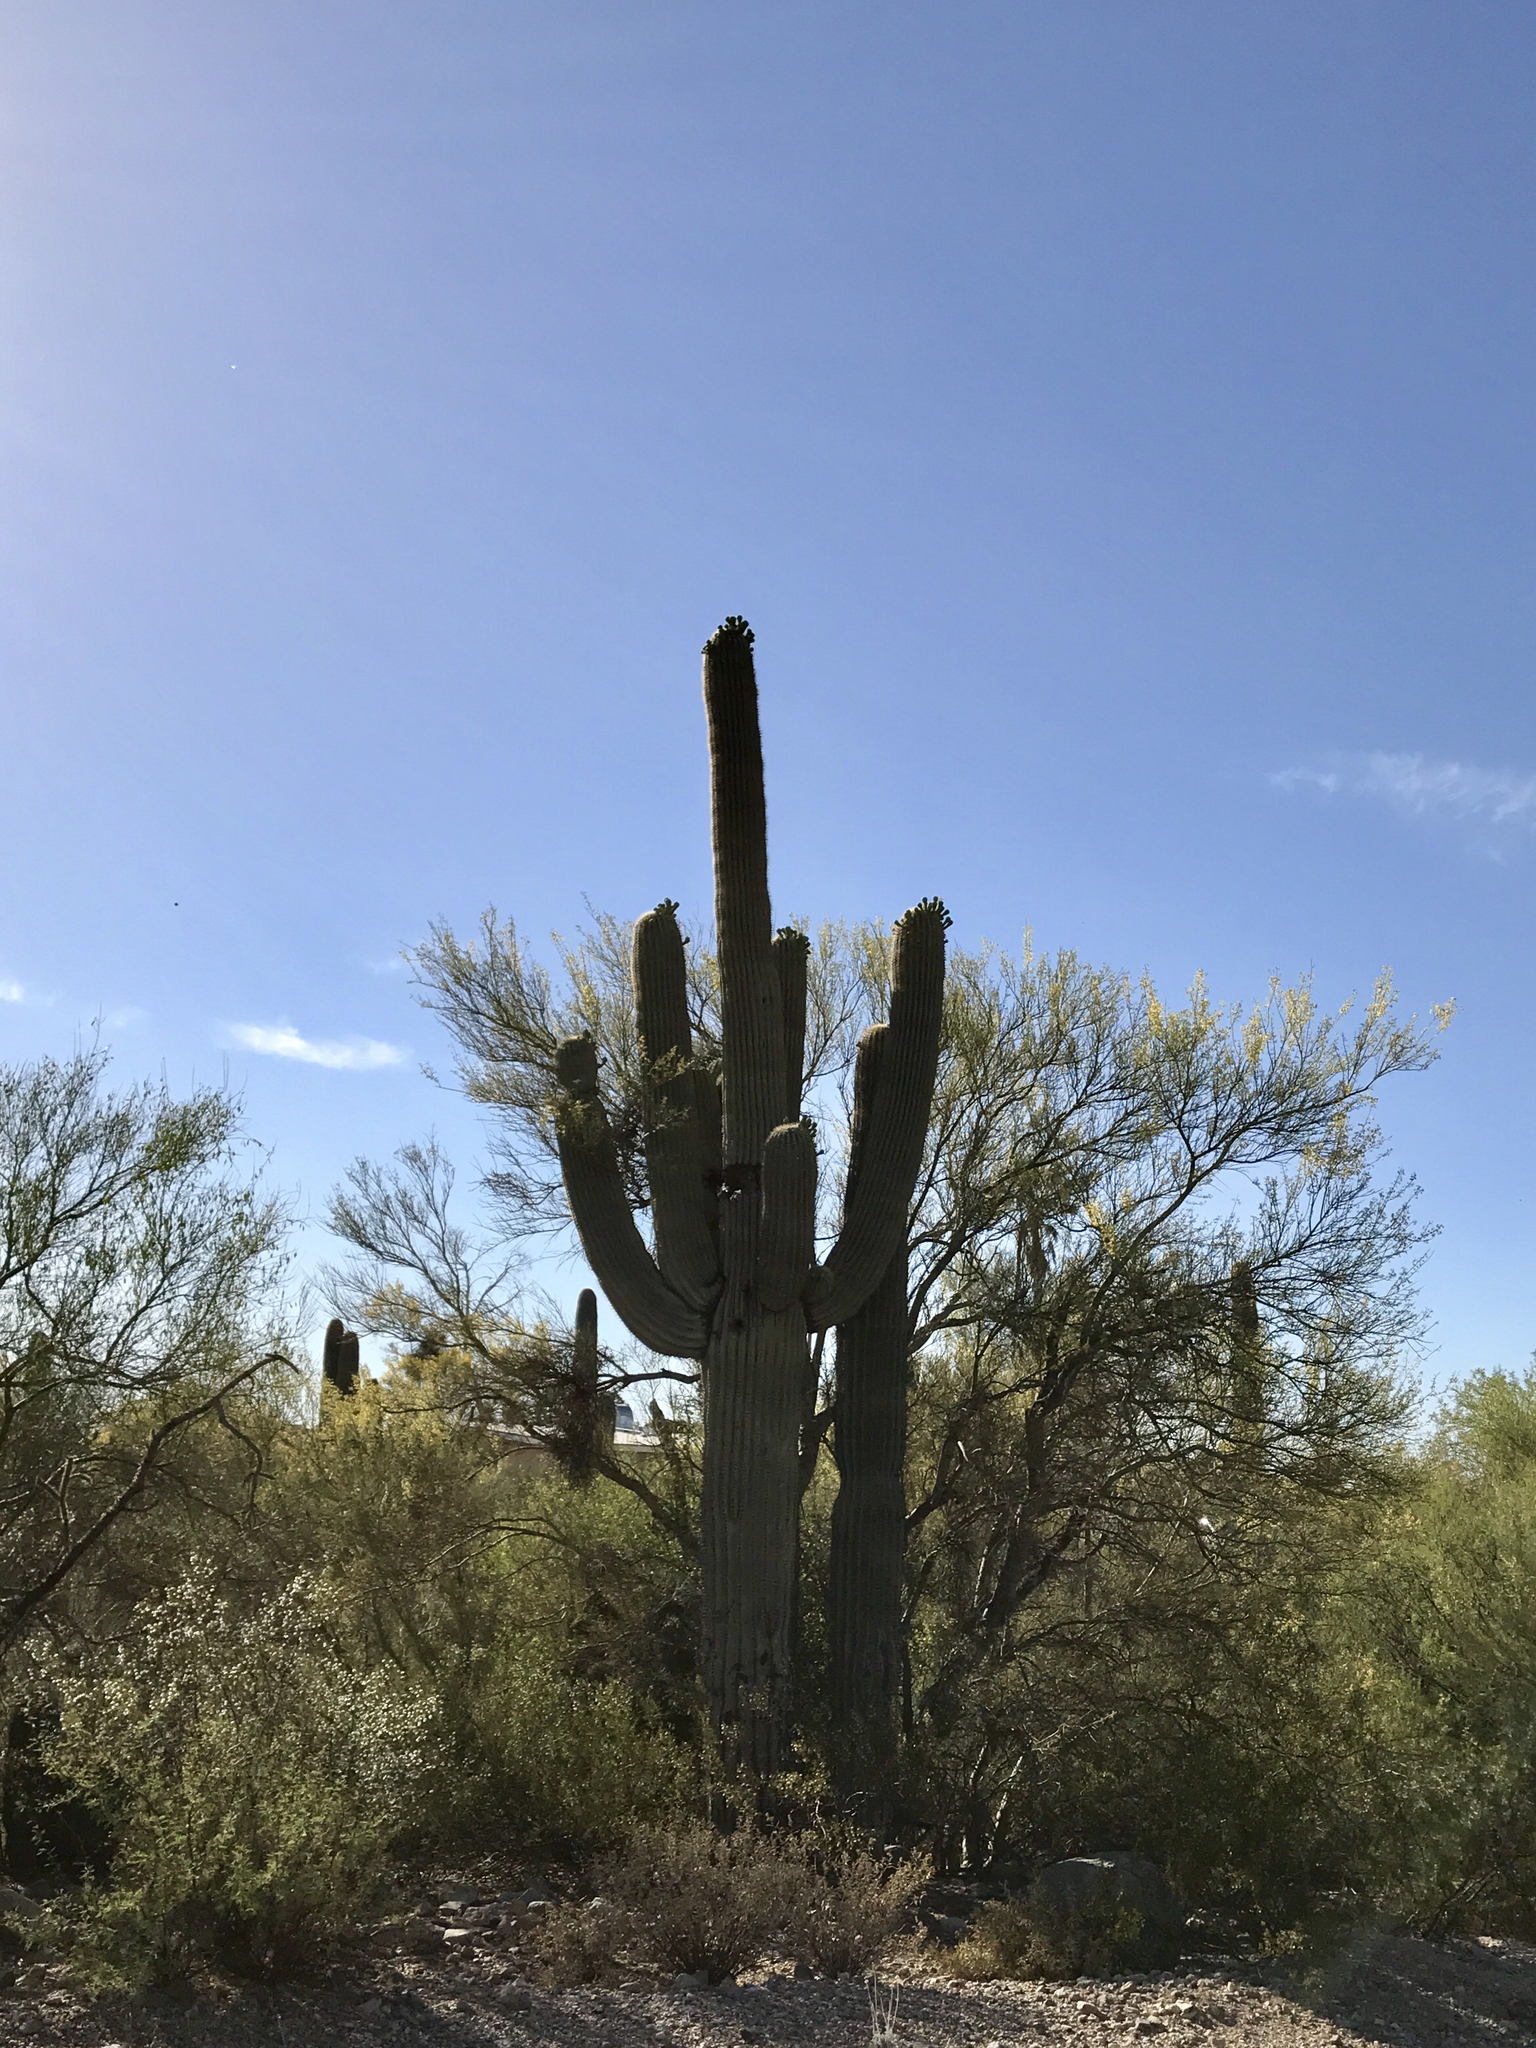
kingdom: Plantae
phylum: Tracheophyta
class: Magnoliopsida
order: Caryophyllales
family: Cactaceae
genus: Carnegiea
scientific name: Carnegiea gigantea
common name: Saguaro
